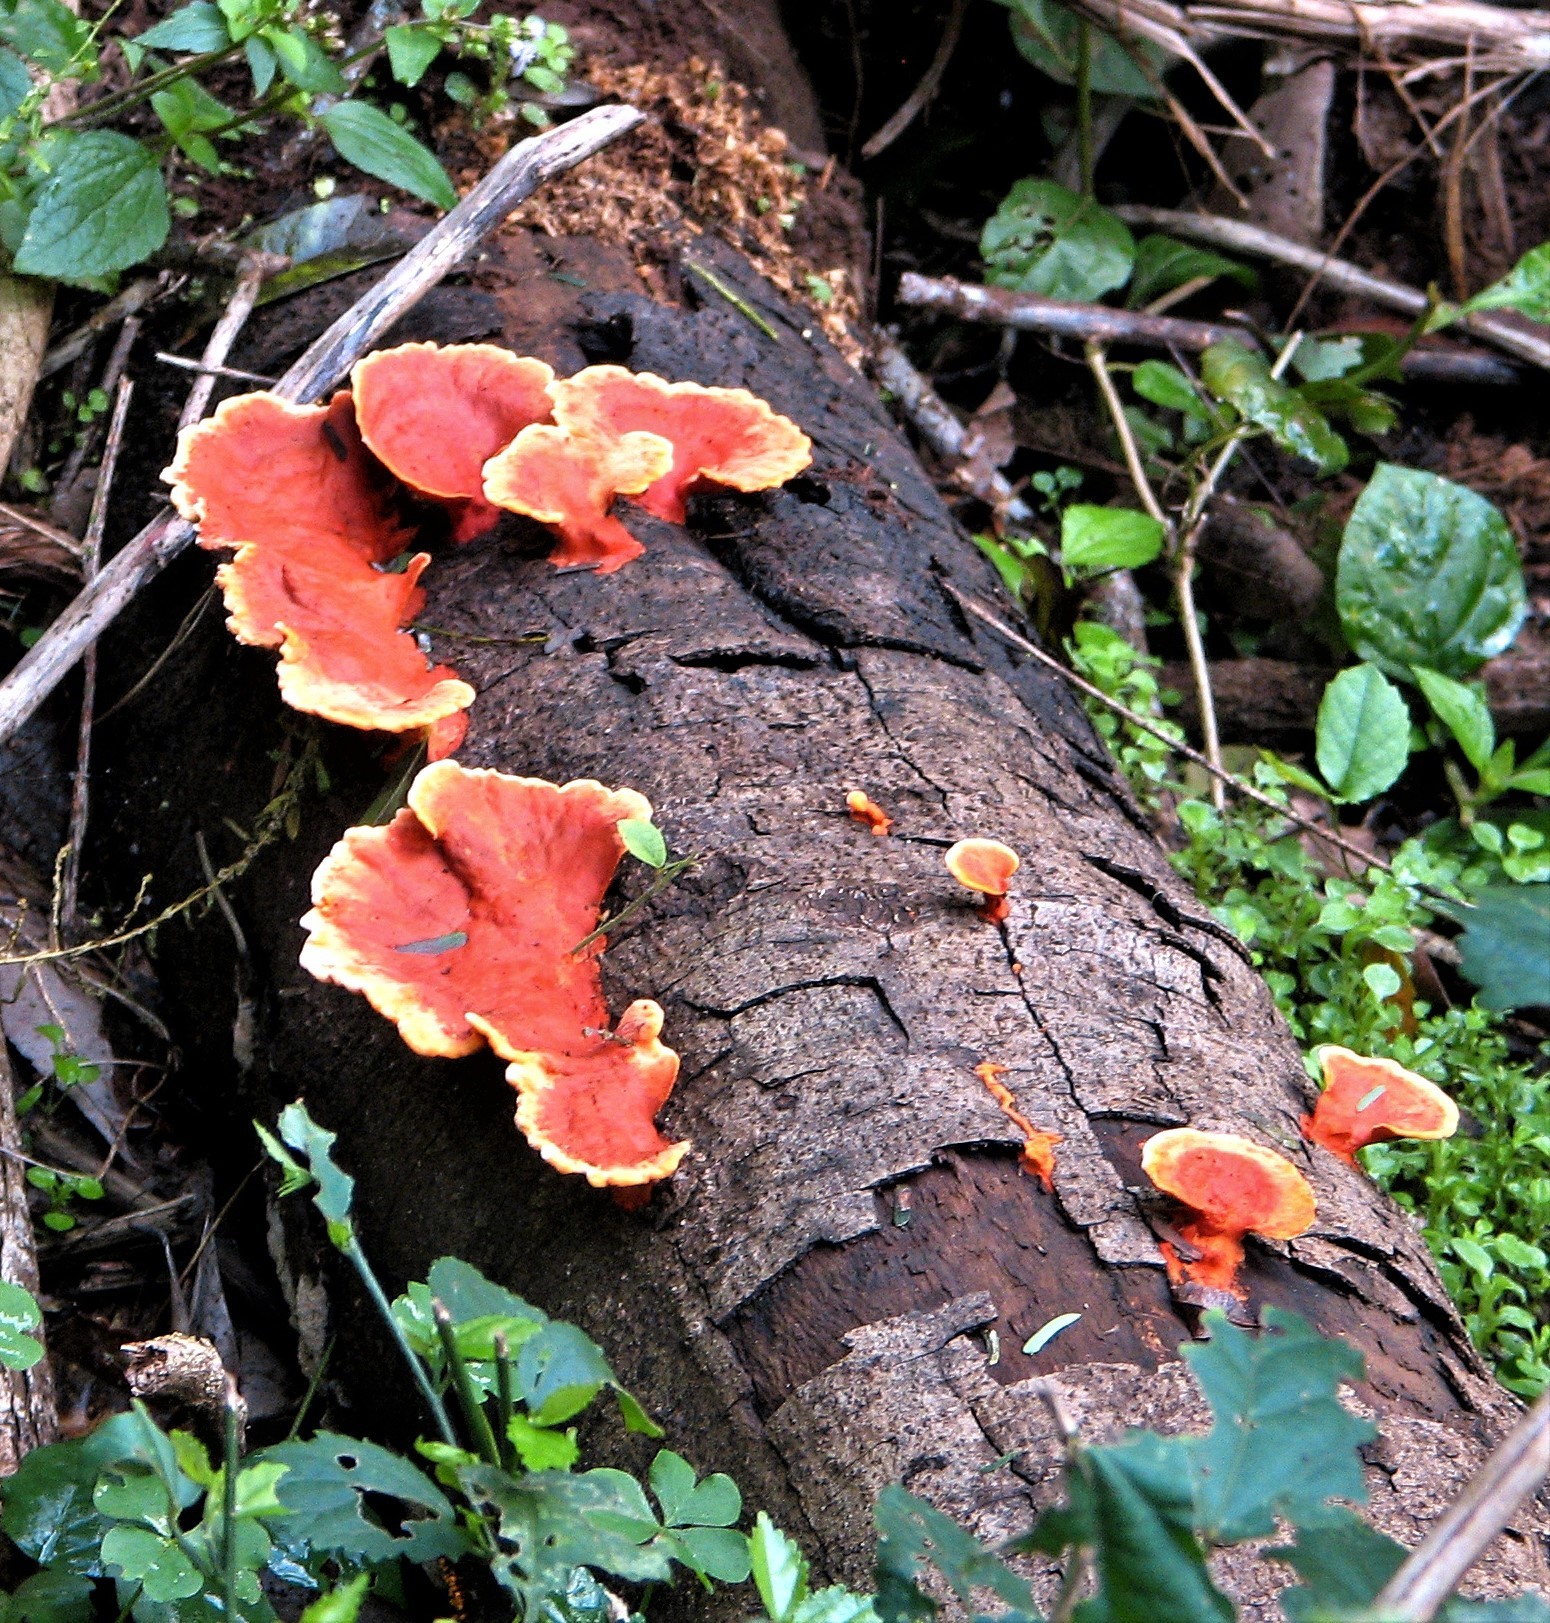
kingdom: Fungi
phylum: Basidiomycota
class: Agaricomycetes
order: Polyporales
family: Polyporaceae
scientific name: Polyporaceae
